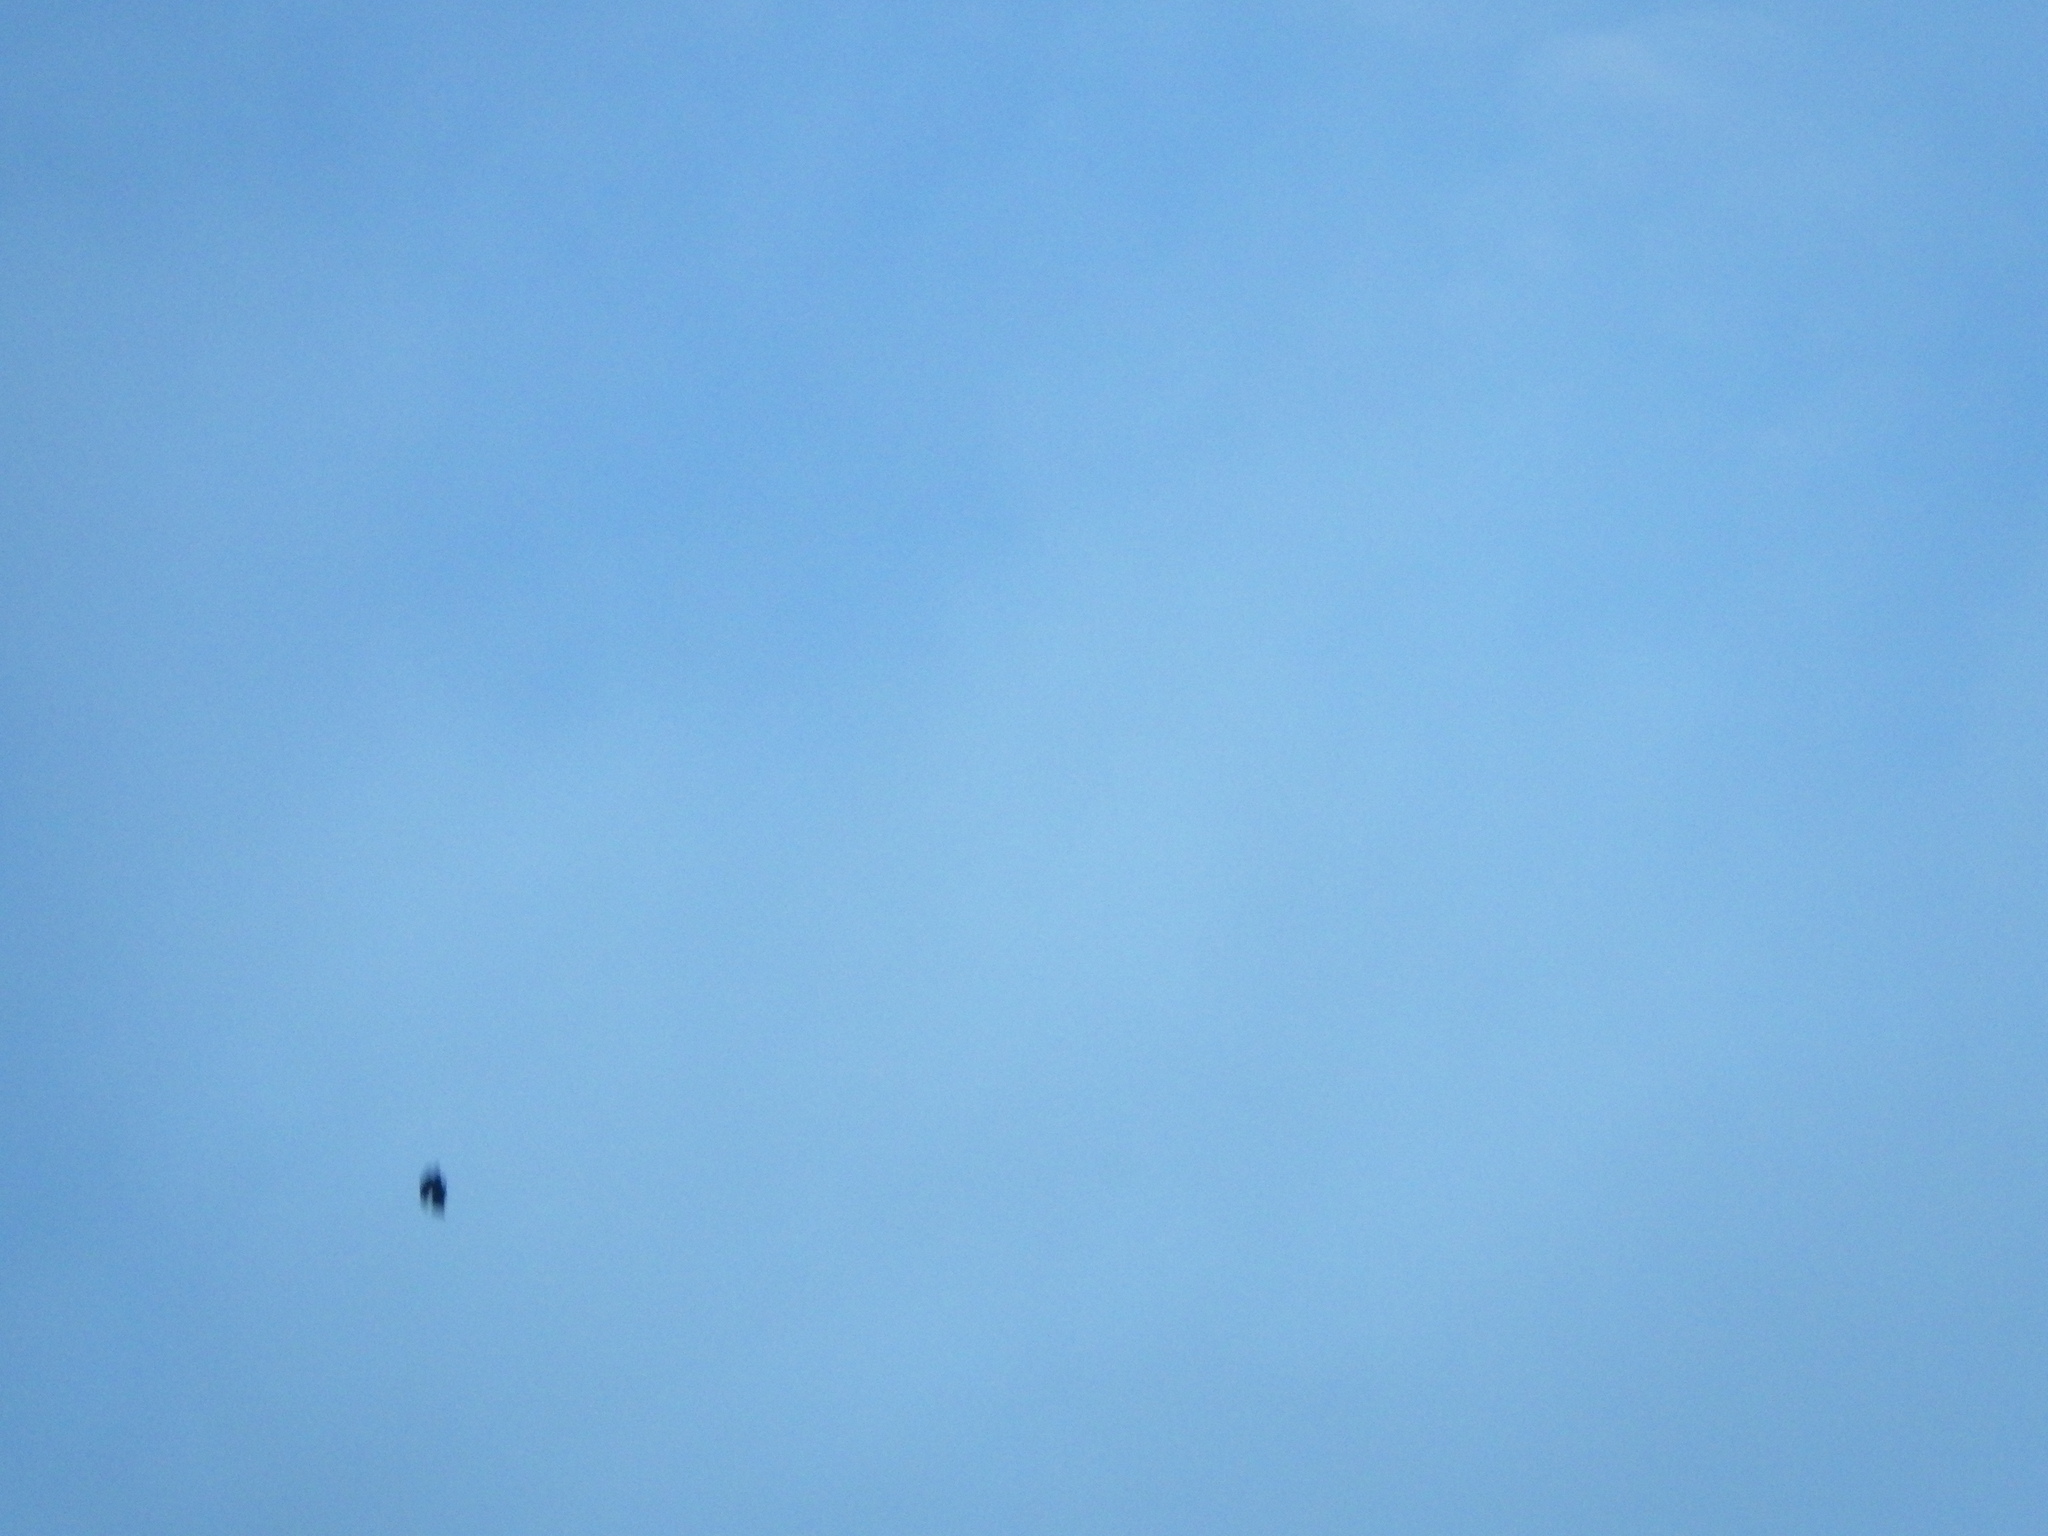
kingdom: Animalia
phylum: Chordata
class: Aves
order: Passeriformes
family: Corvidae
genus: Corvus
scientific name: Corvus brachyrhynchos
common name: American crow
